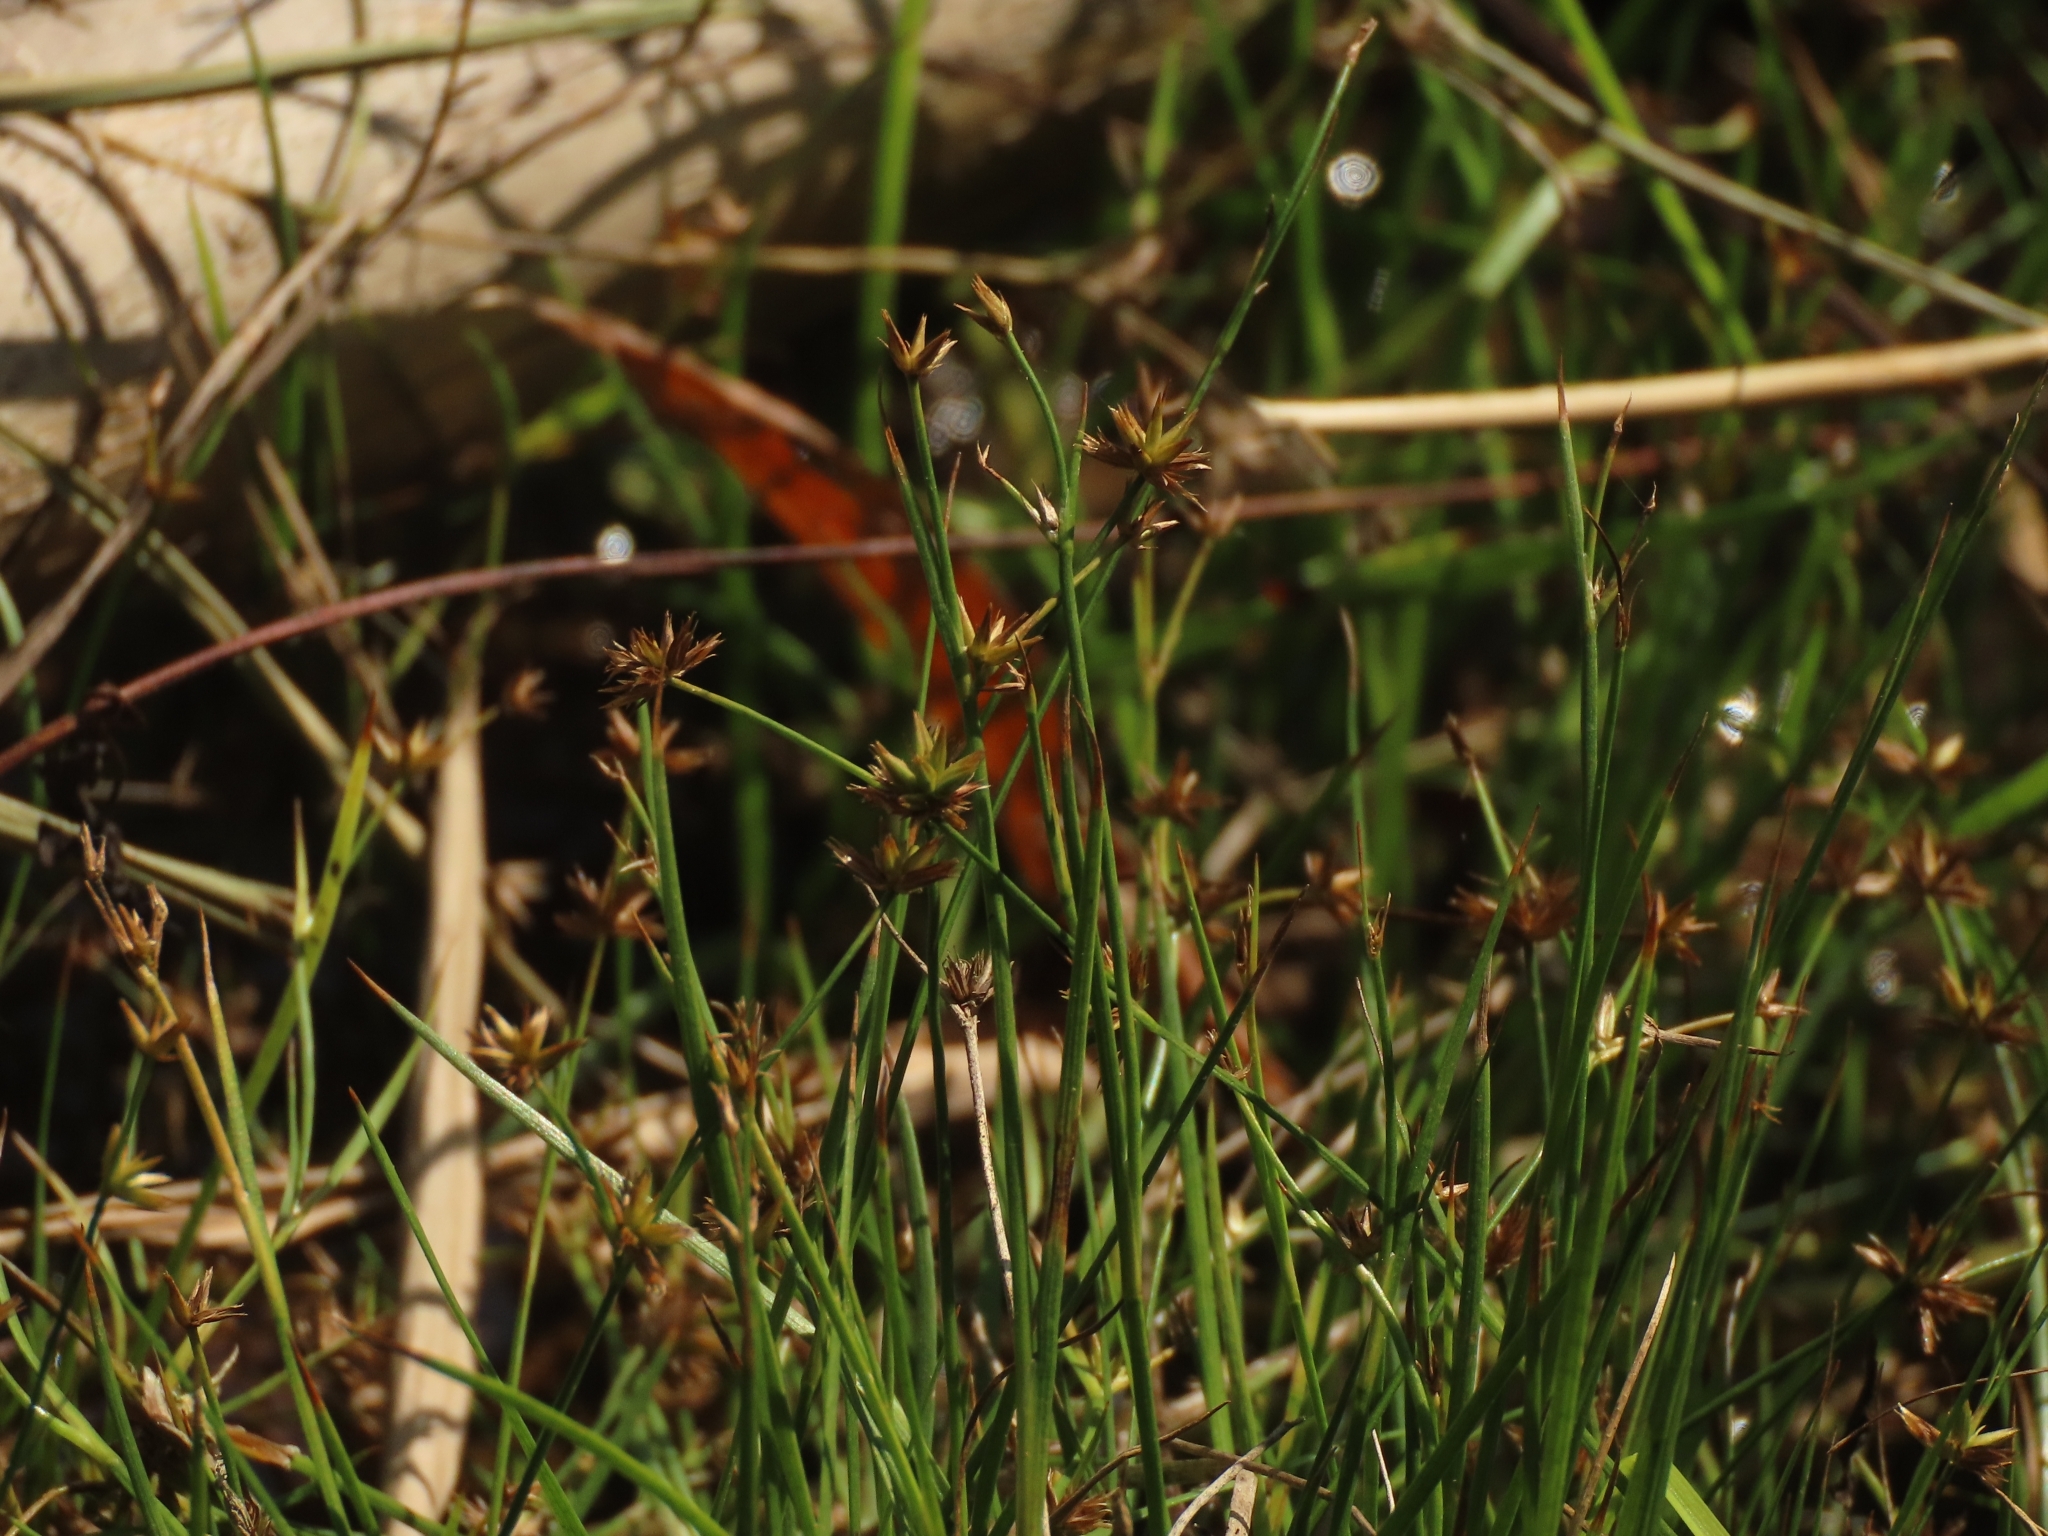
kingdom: Plantae
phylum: Tracheophyta
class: Liliopsida
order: Poales
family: Juncaceae
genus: Juncus
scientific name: Juncus prismatocarpus
